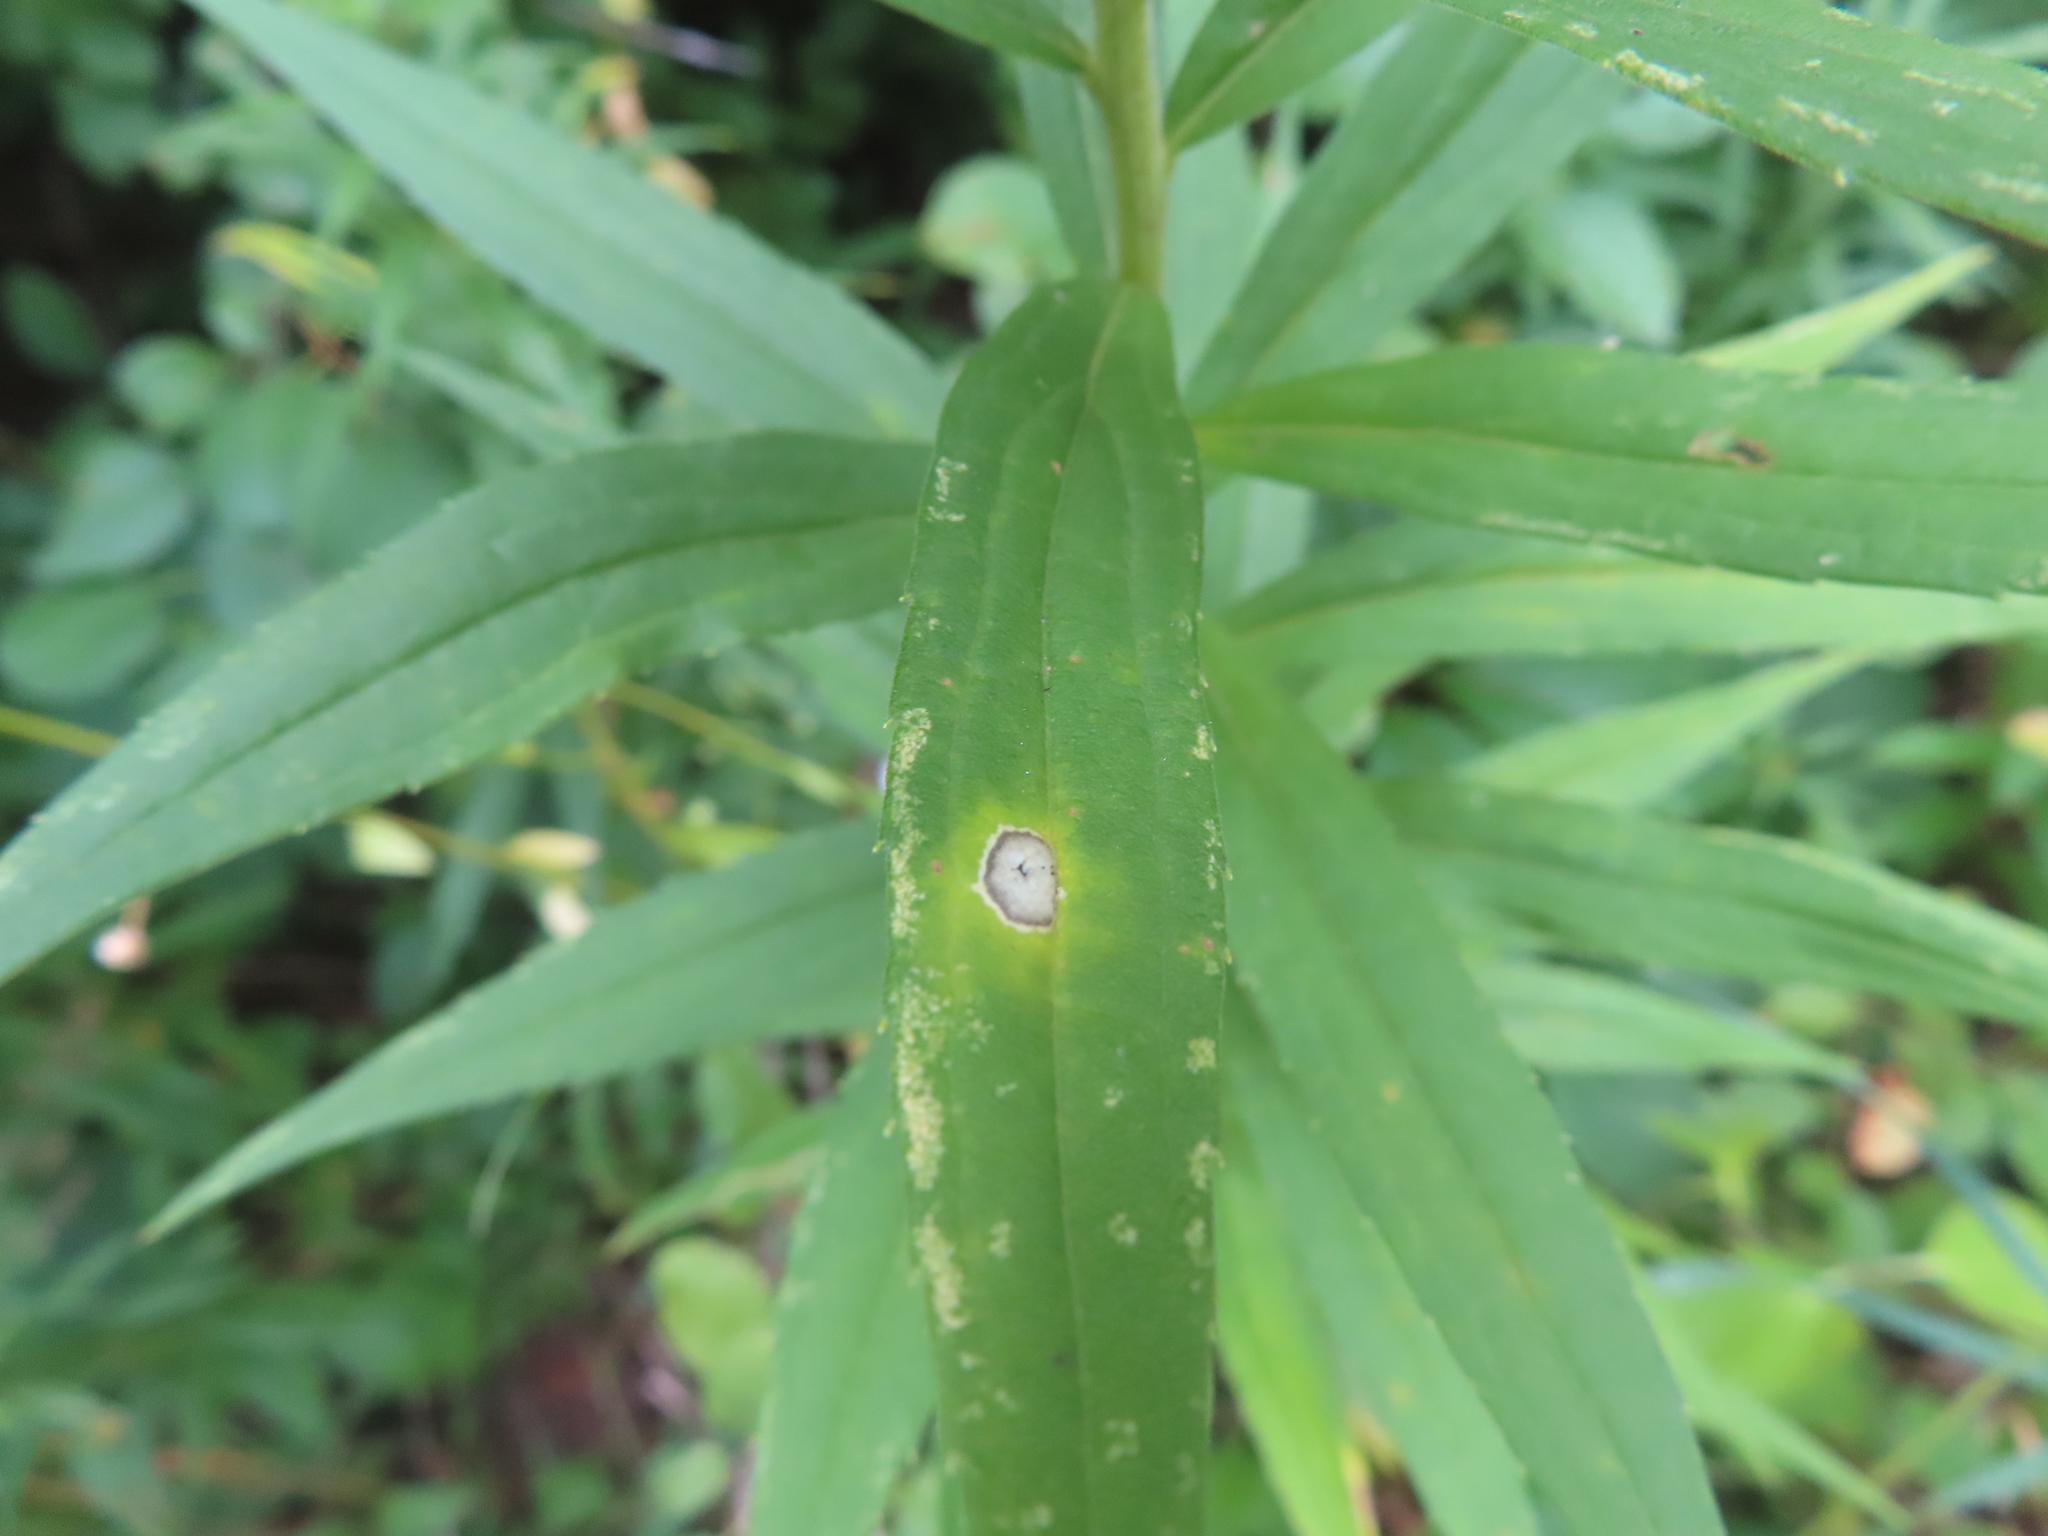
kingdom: Animalia
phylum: Arthropoda
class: Insecta
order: Diptera
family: Cecidomyiidae
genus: Asteromyia
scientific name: Asteromyia carbonifera
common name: Carbonifera goldenrod gall midge
